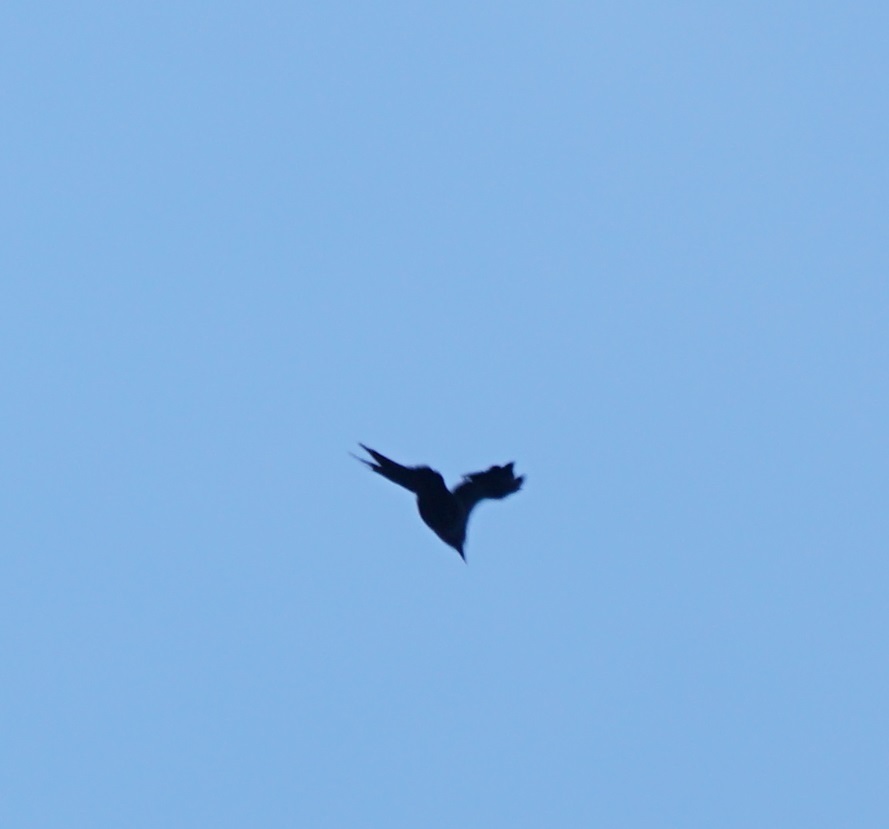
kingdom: Animalia
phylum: Chordata
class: Aves
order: Passeriformes
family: Corvidae
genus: Corvus
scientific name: Corvus enca
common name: Slender-billed crow
